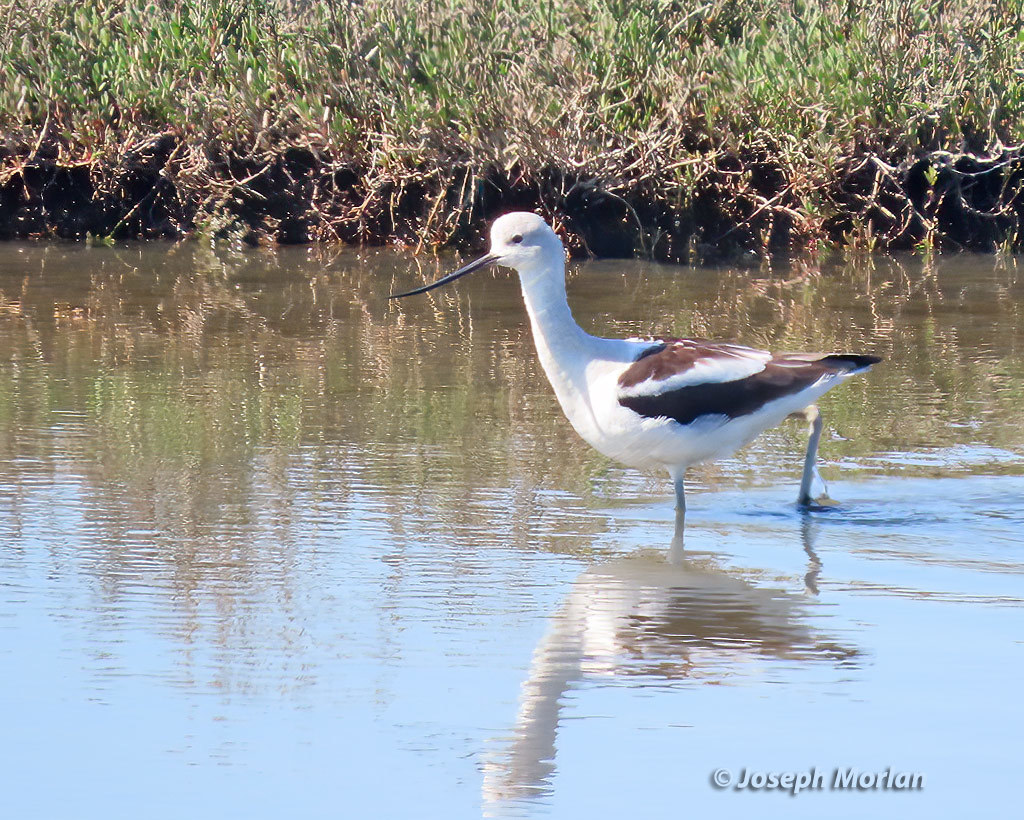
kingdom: Animalia
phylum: Chordata
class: Aves
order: Charadriiformes
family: Recurvirostridae
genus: Recurvirostra
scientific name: Recurvirostra americana
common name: American avocet
